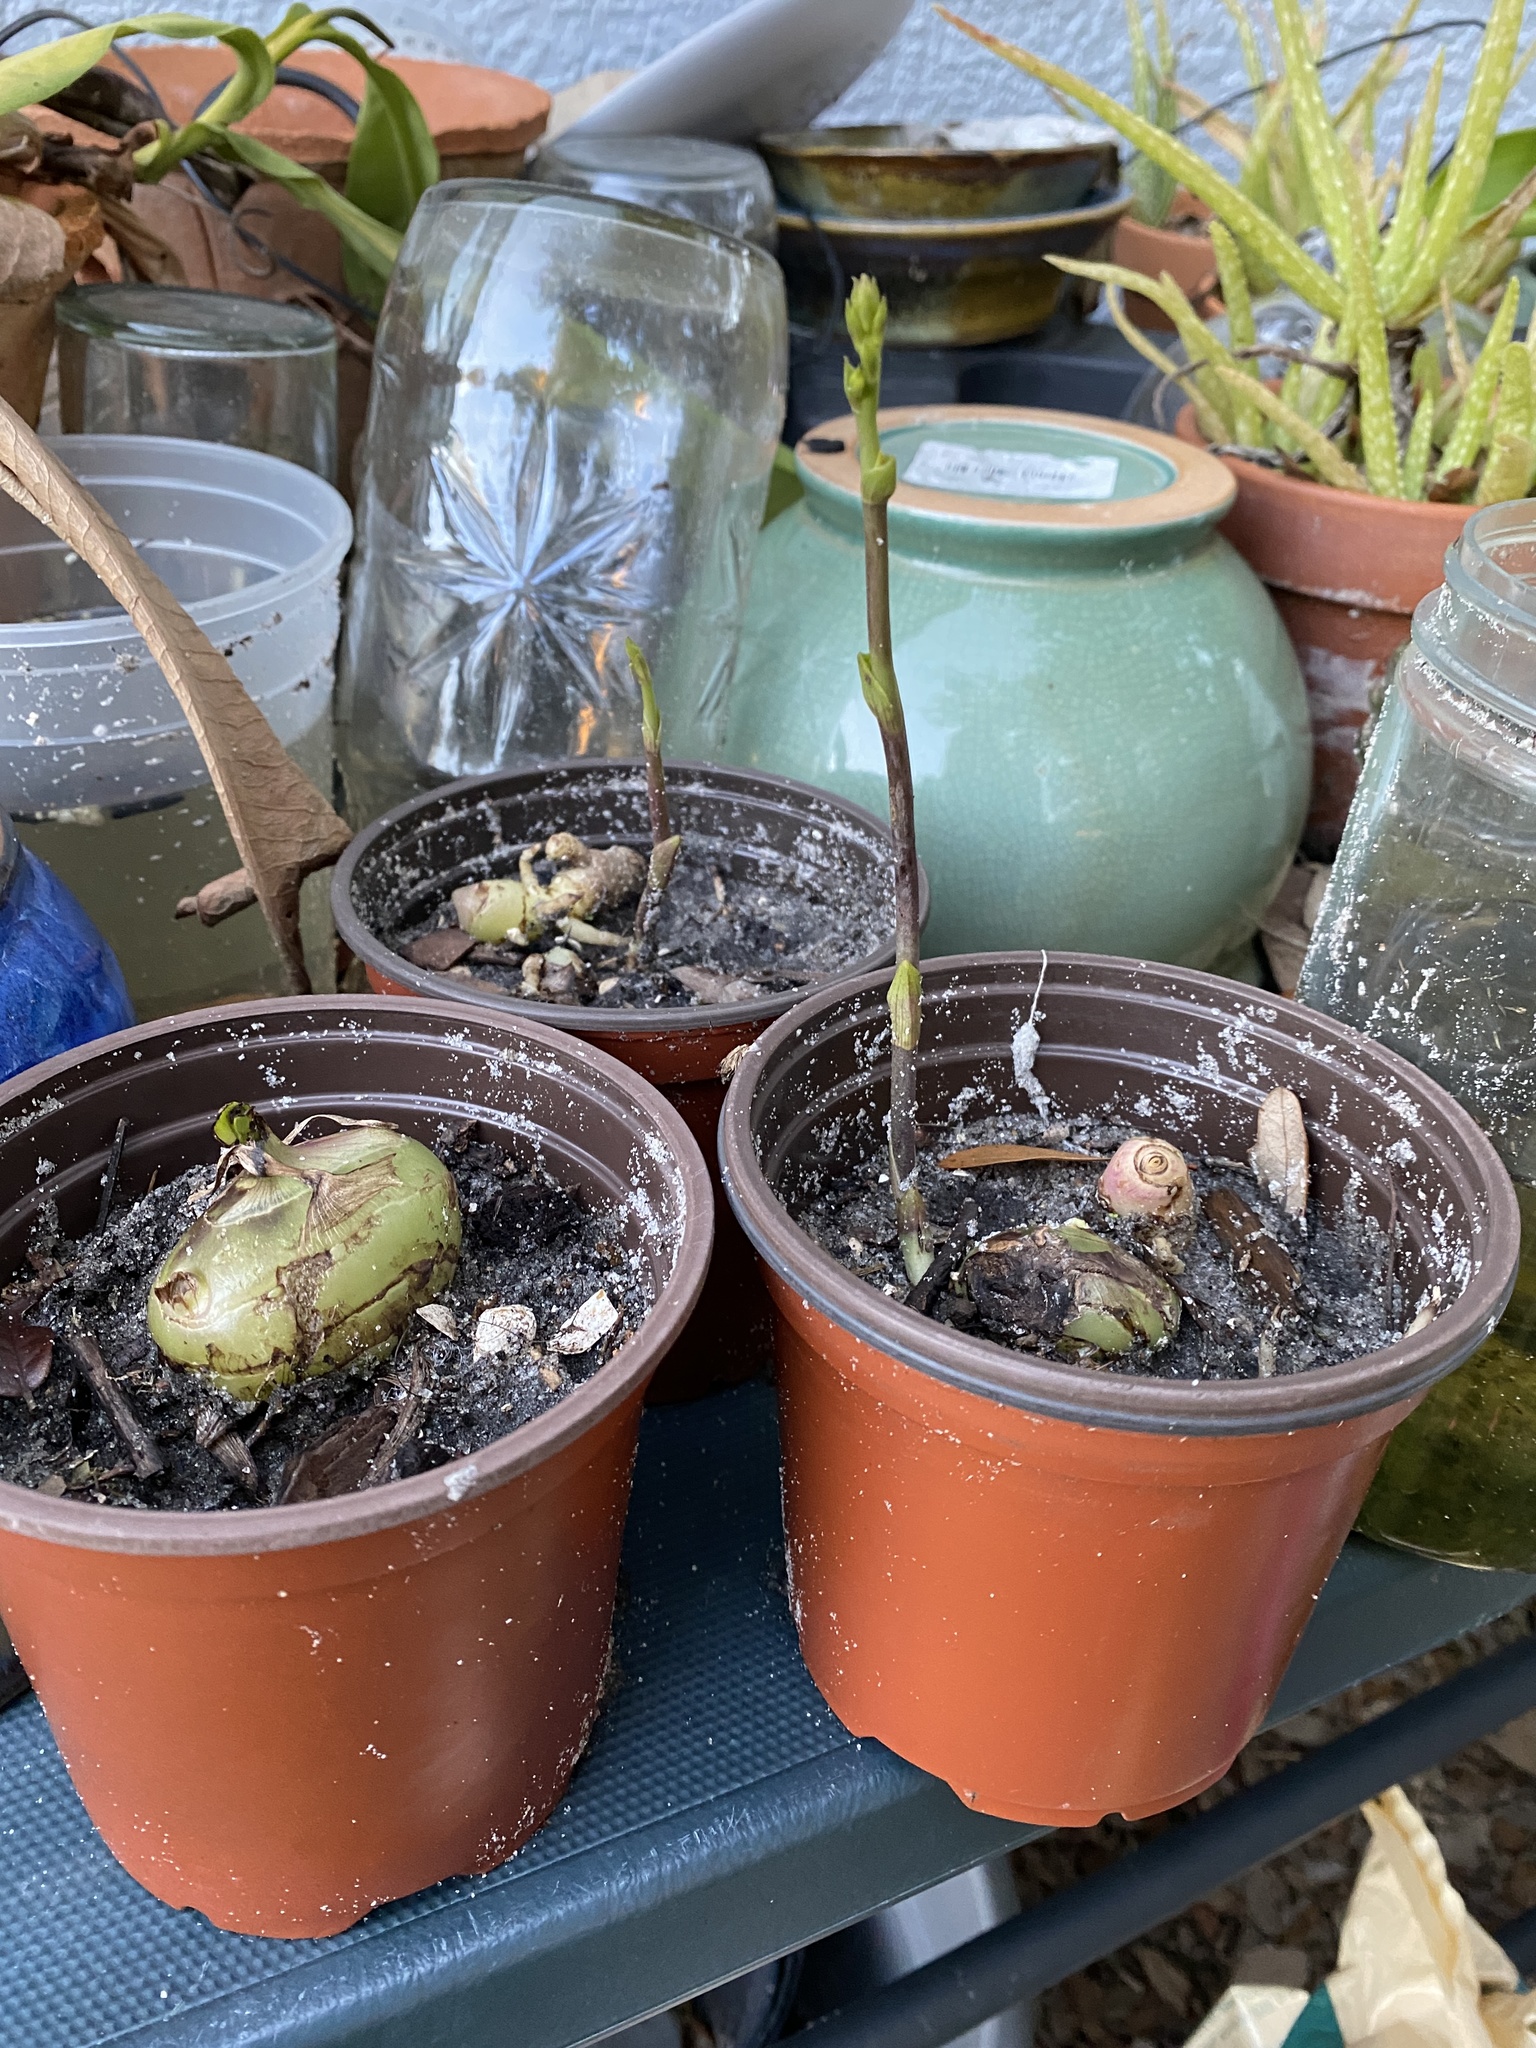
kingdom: Plantae
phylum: Tracheophyta
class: Liliopsida
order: Asparagales
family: Orchidaceae
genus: Eulophia
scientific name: Eulophia graminea
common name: Orchid
